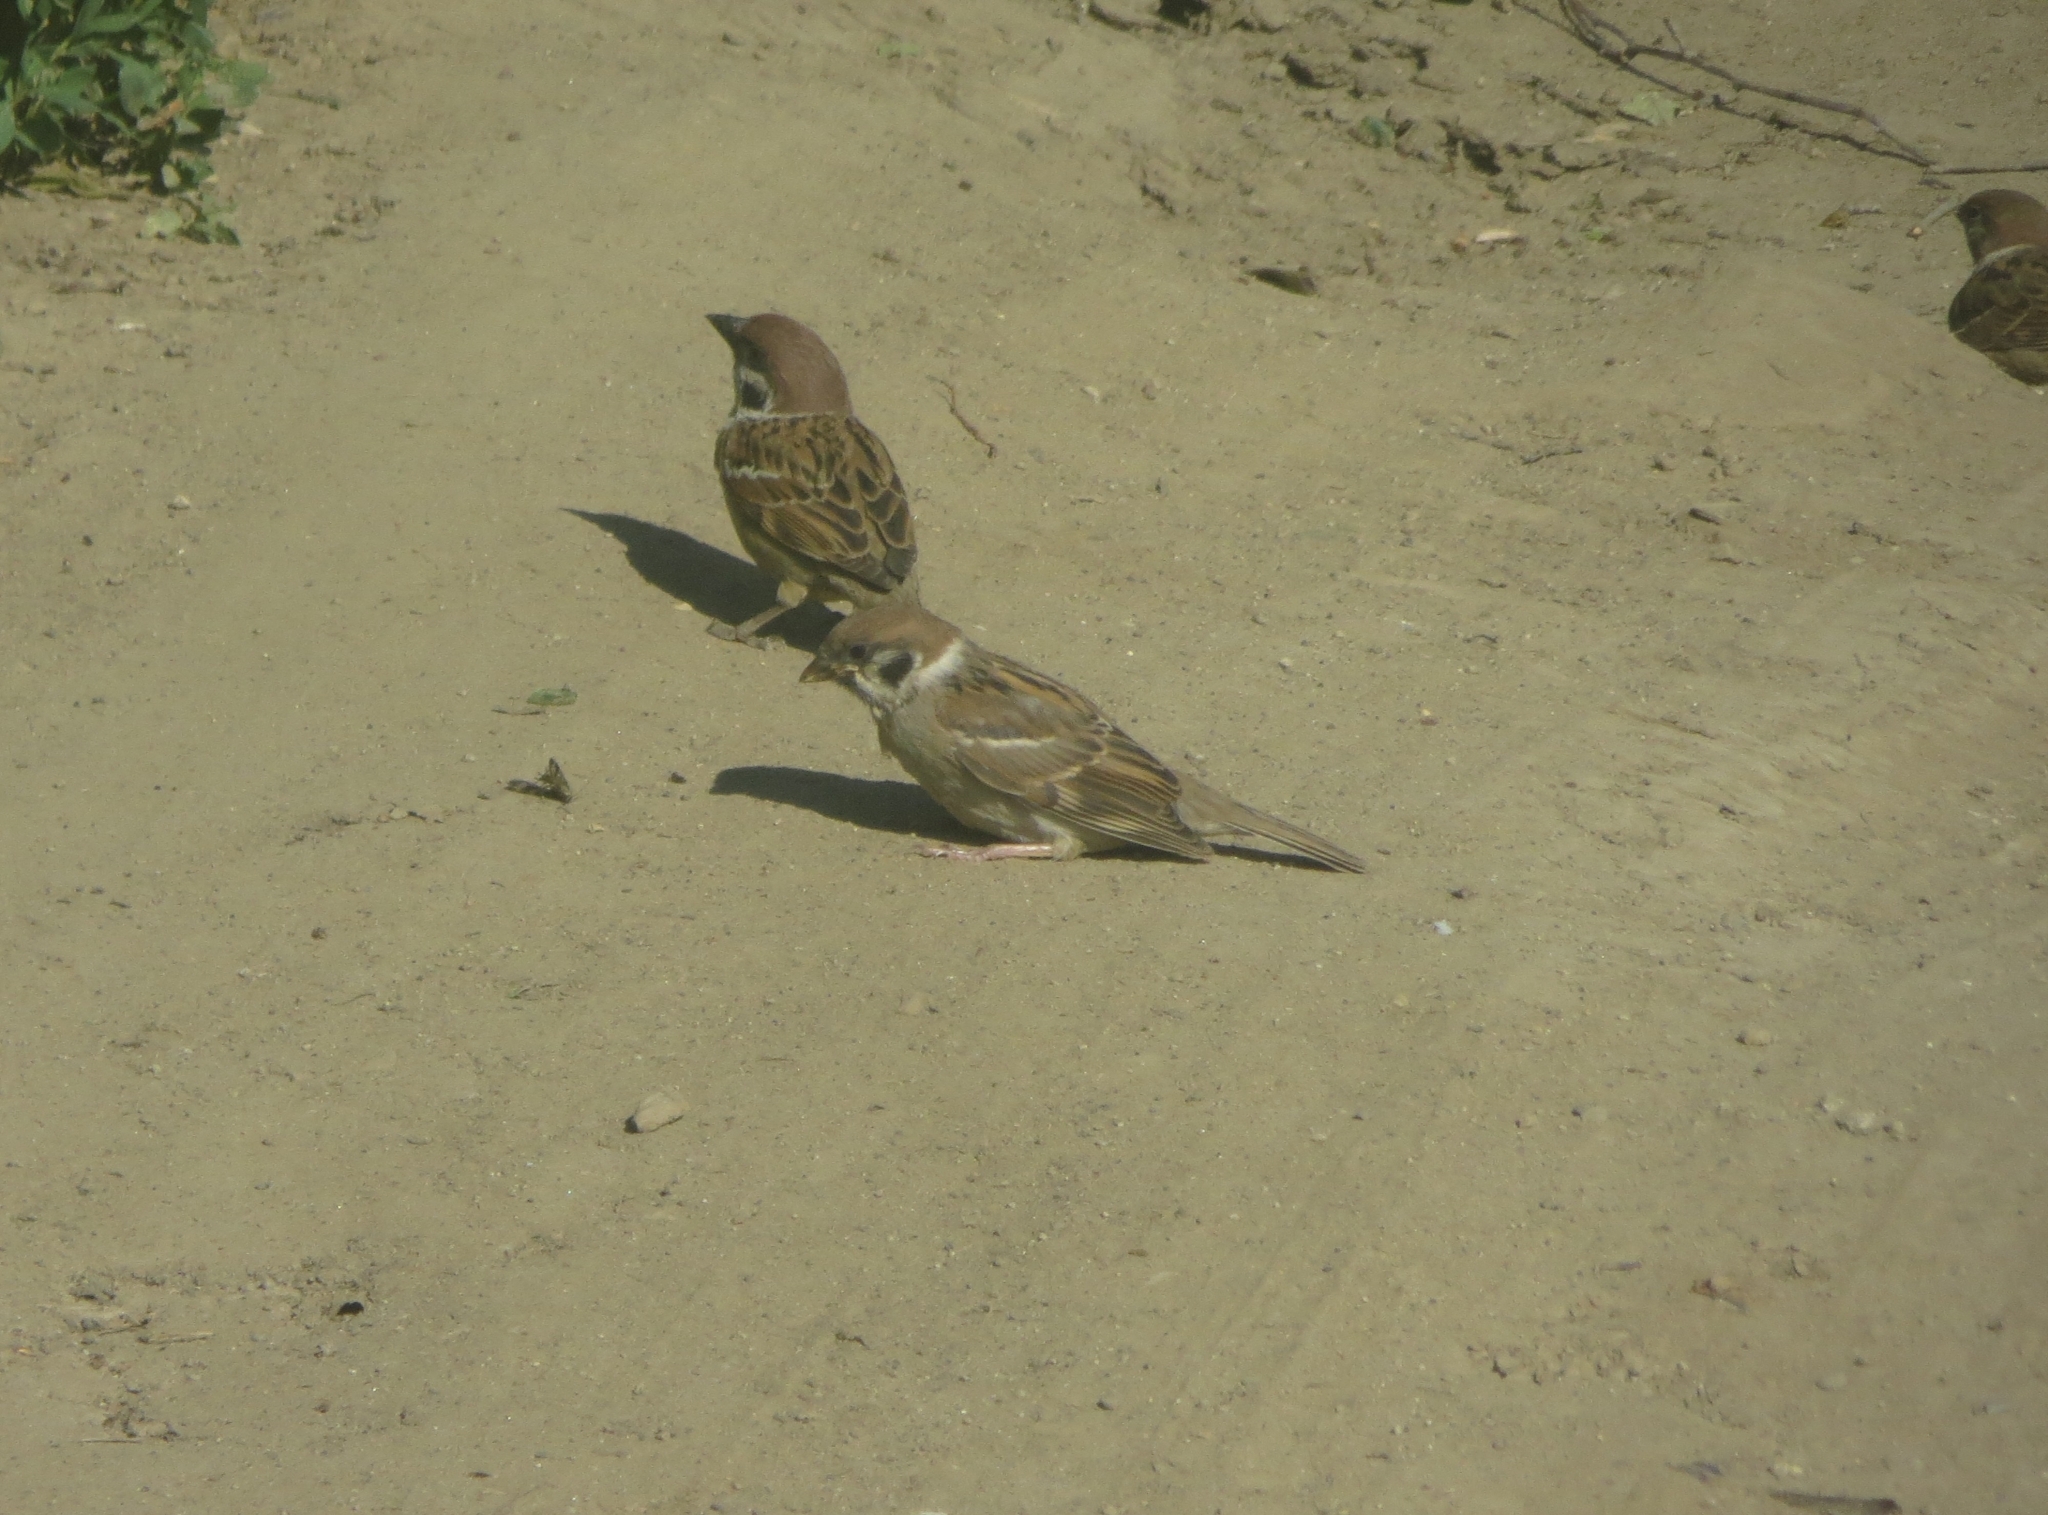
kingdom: Animalia
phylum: Chordata
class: Aves
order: Passeriformes
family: Passeridae
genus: Passer
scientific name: Passer montanus
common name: Eurasian tree sparrow
